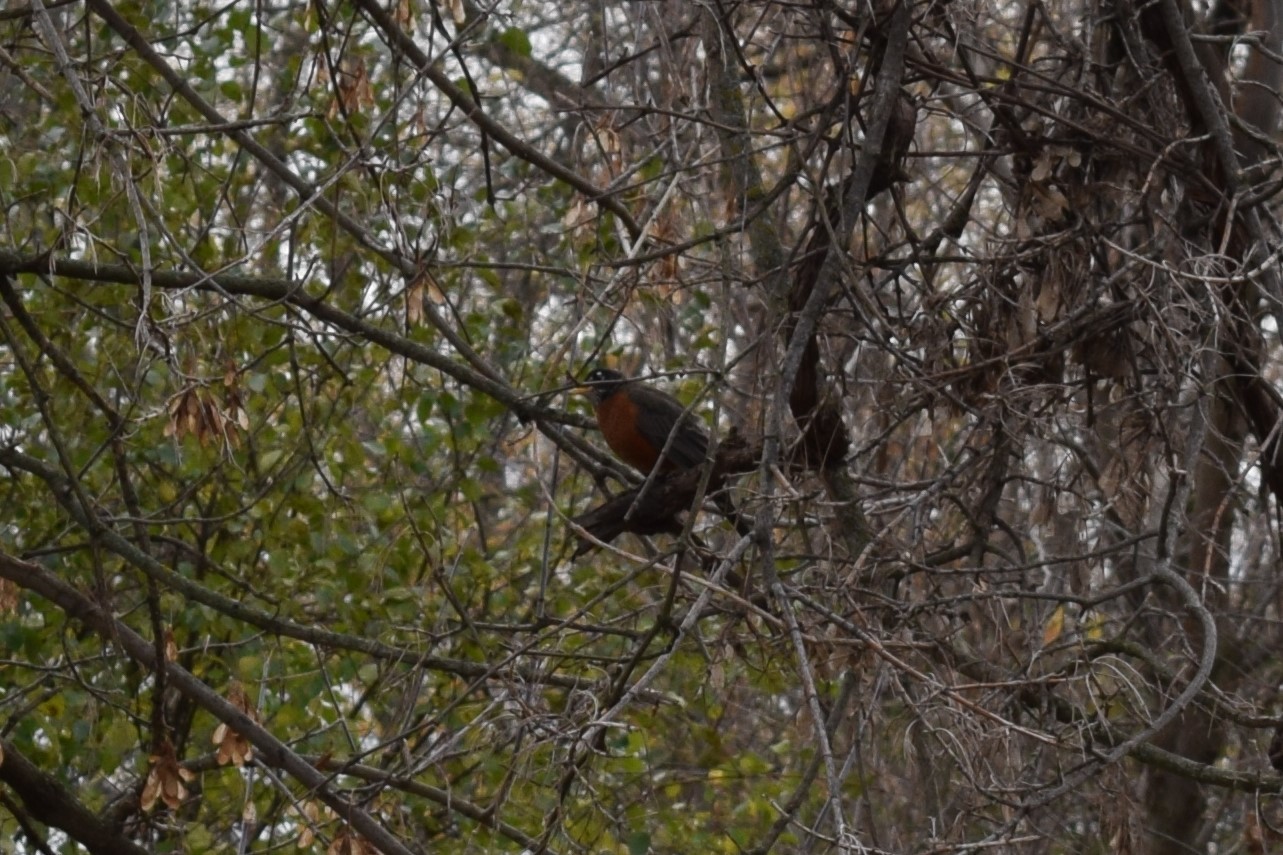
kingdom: Animalia
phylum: Chordata
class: Aves
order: Passeriformes
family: Turdidae
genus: Turdus
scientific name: Turdus migratorius
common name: American robin
